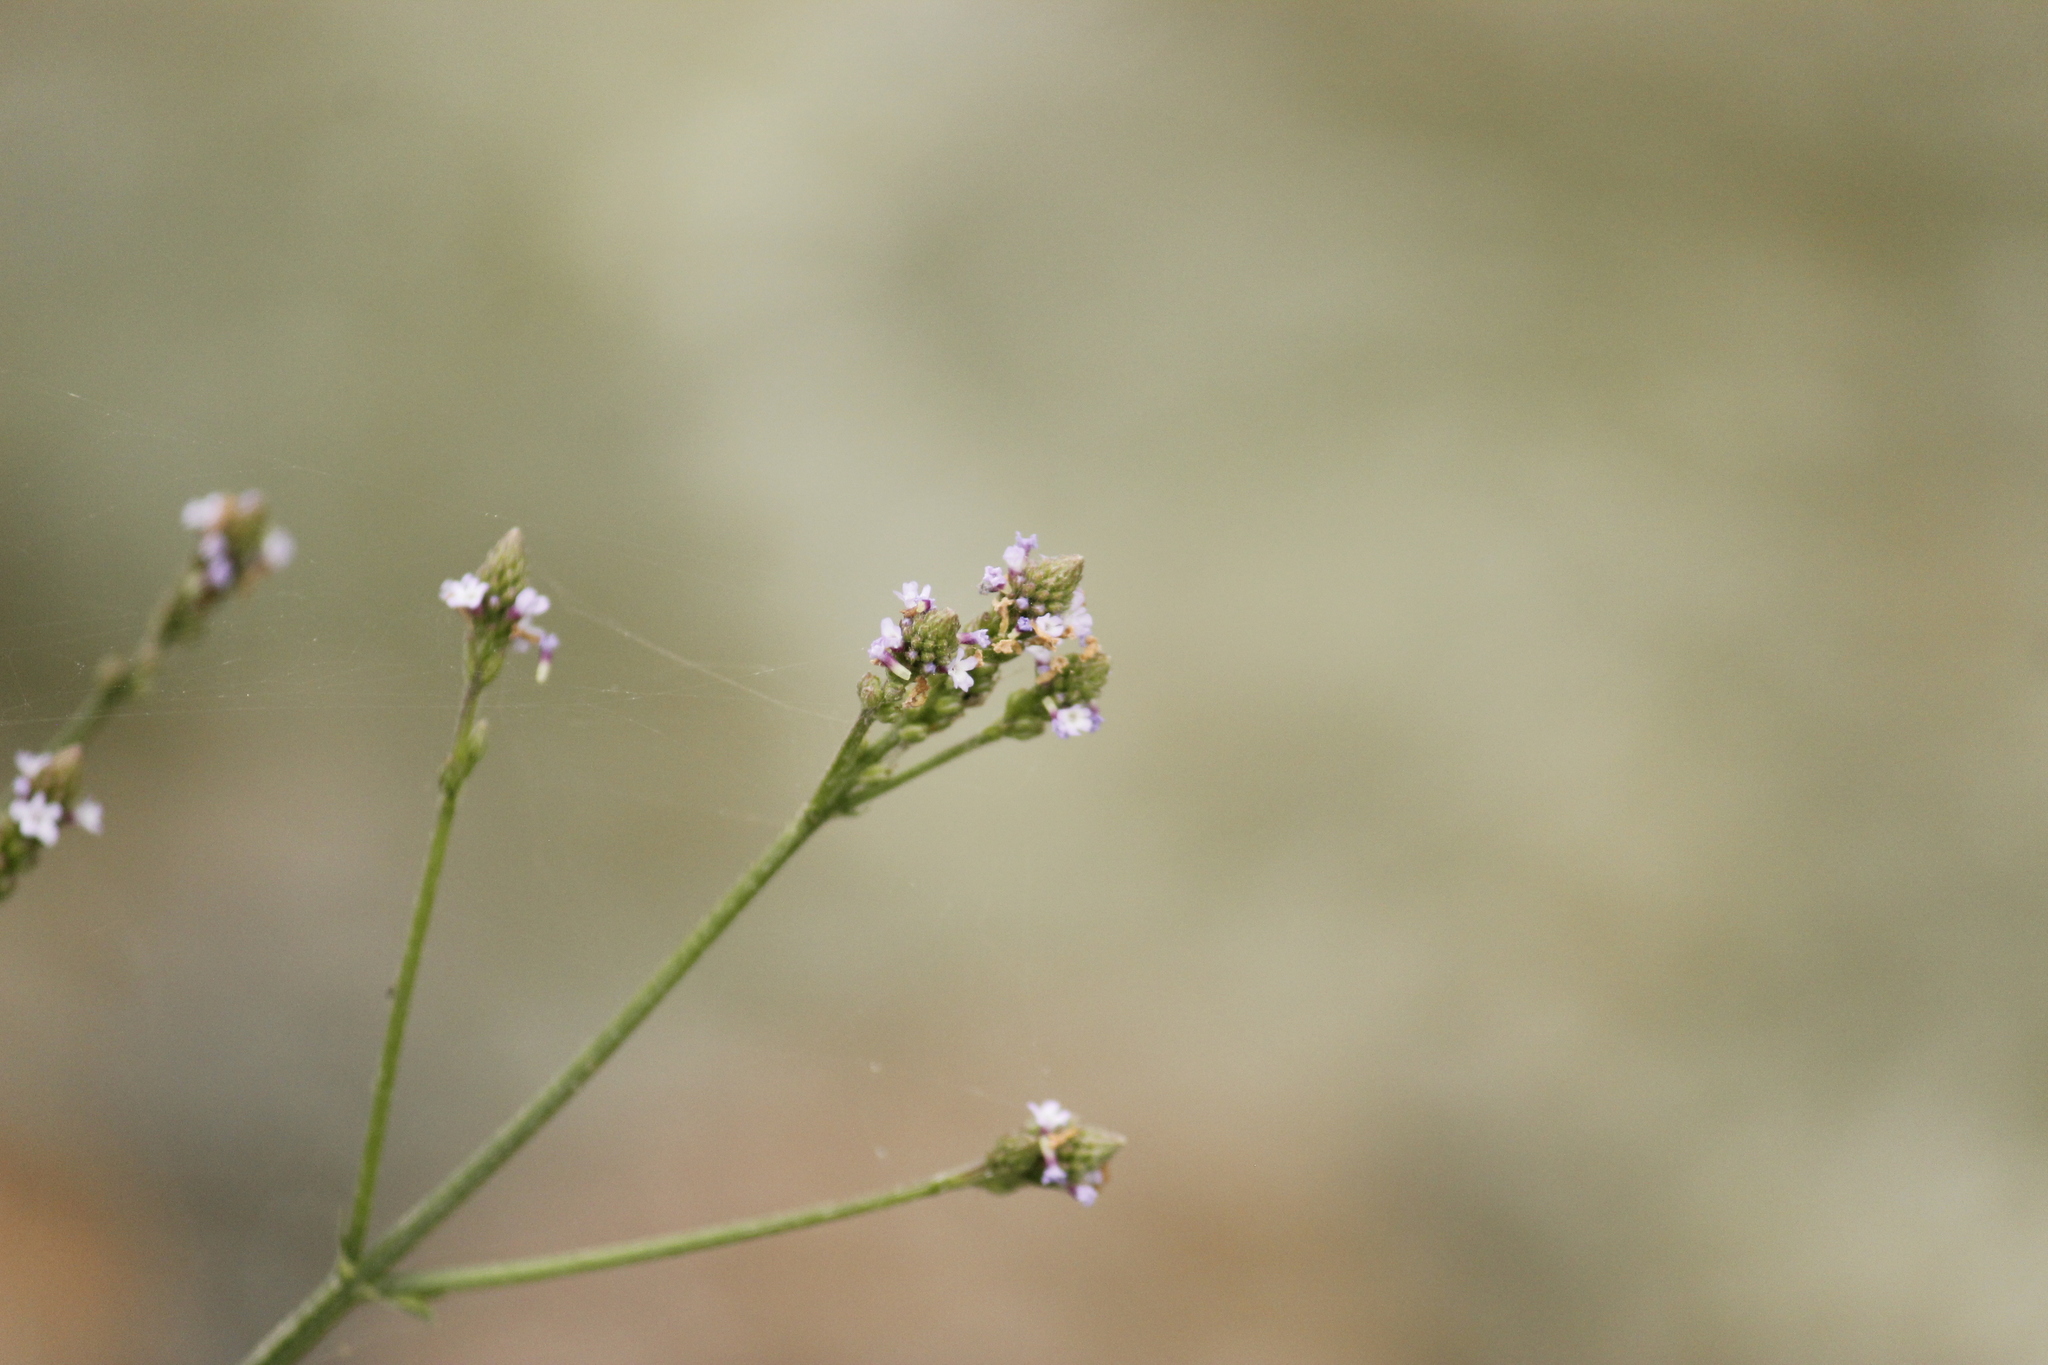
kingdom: Plantae
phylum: Tracheophyta
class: Magnoliopsida
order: Lamiales
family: Verbenaceae
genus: Verbena
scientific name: Verbena litoralis
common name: Seashore vervain
